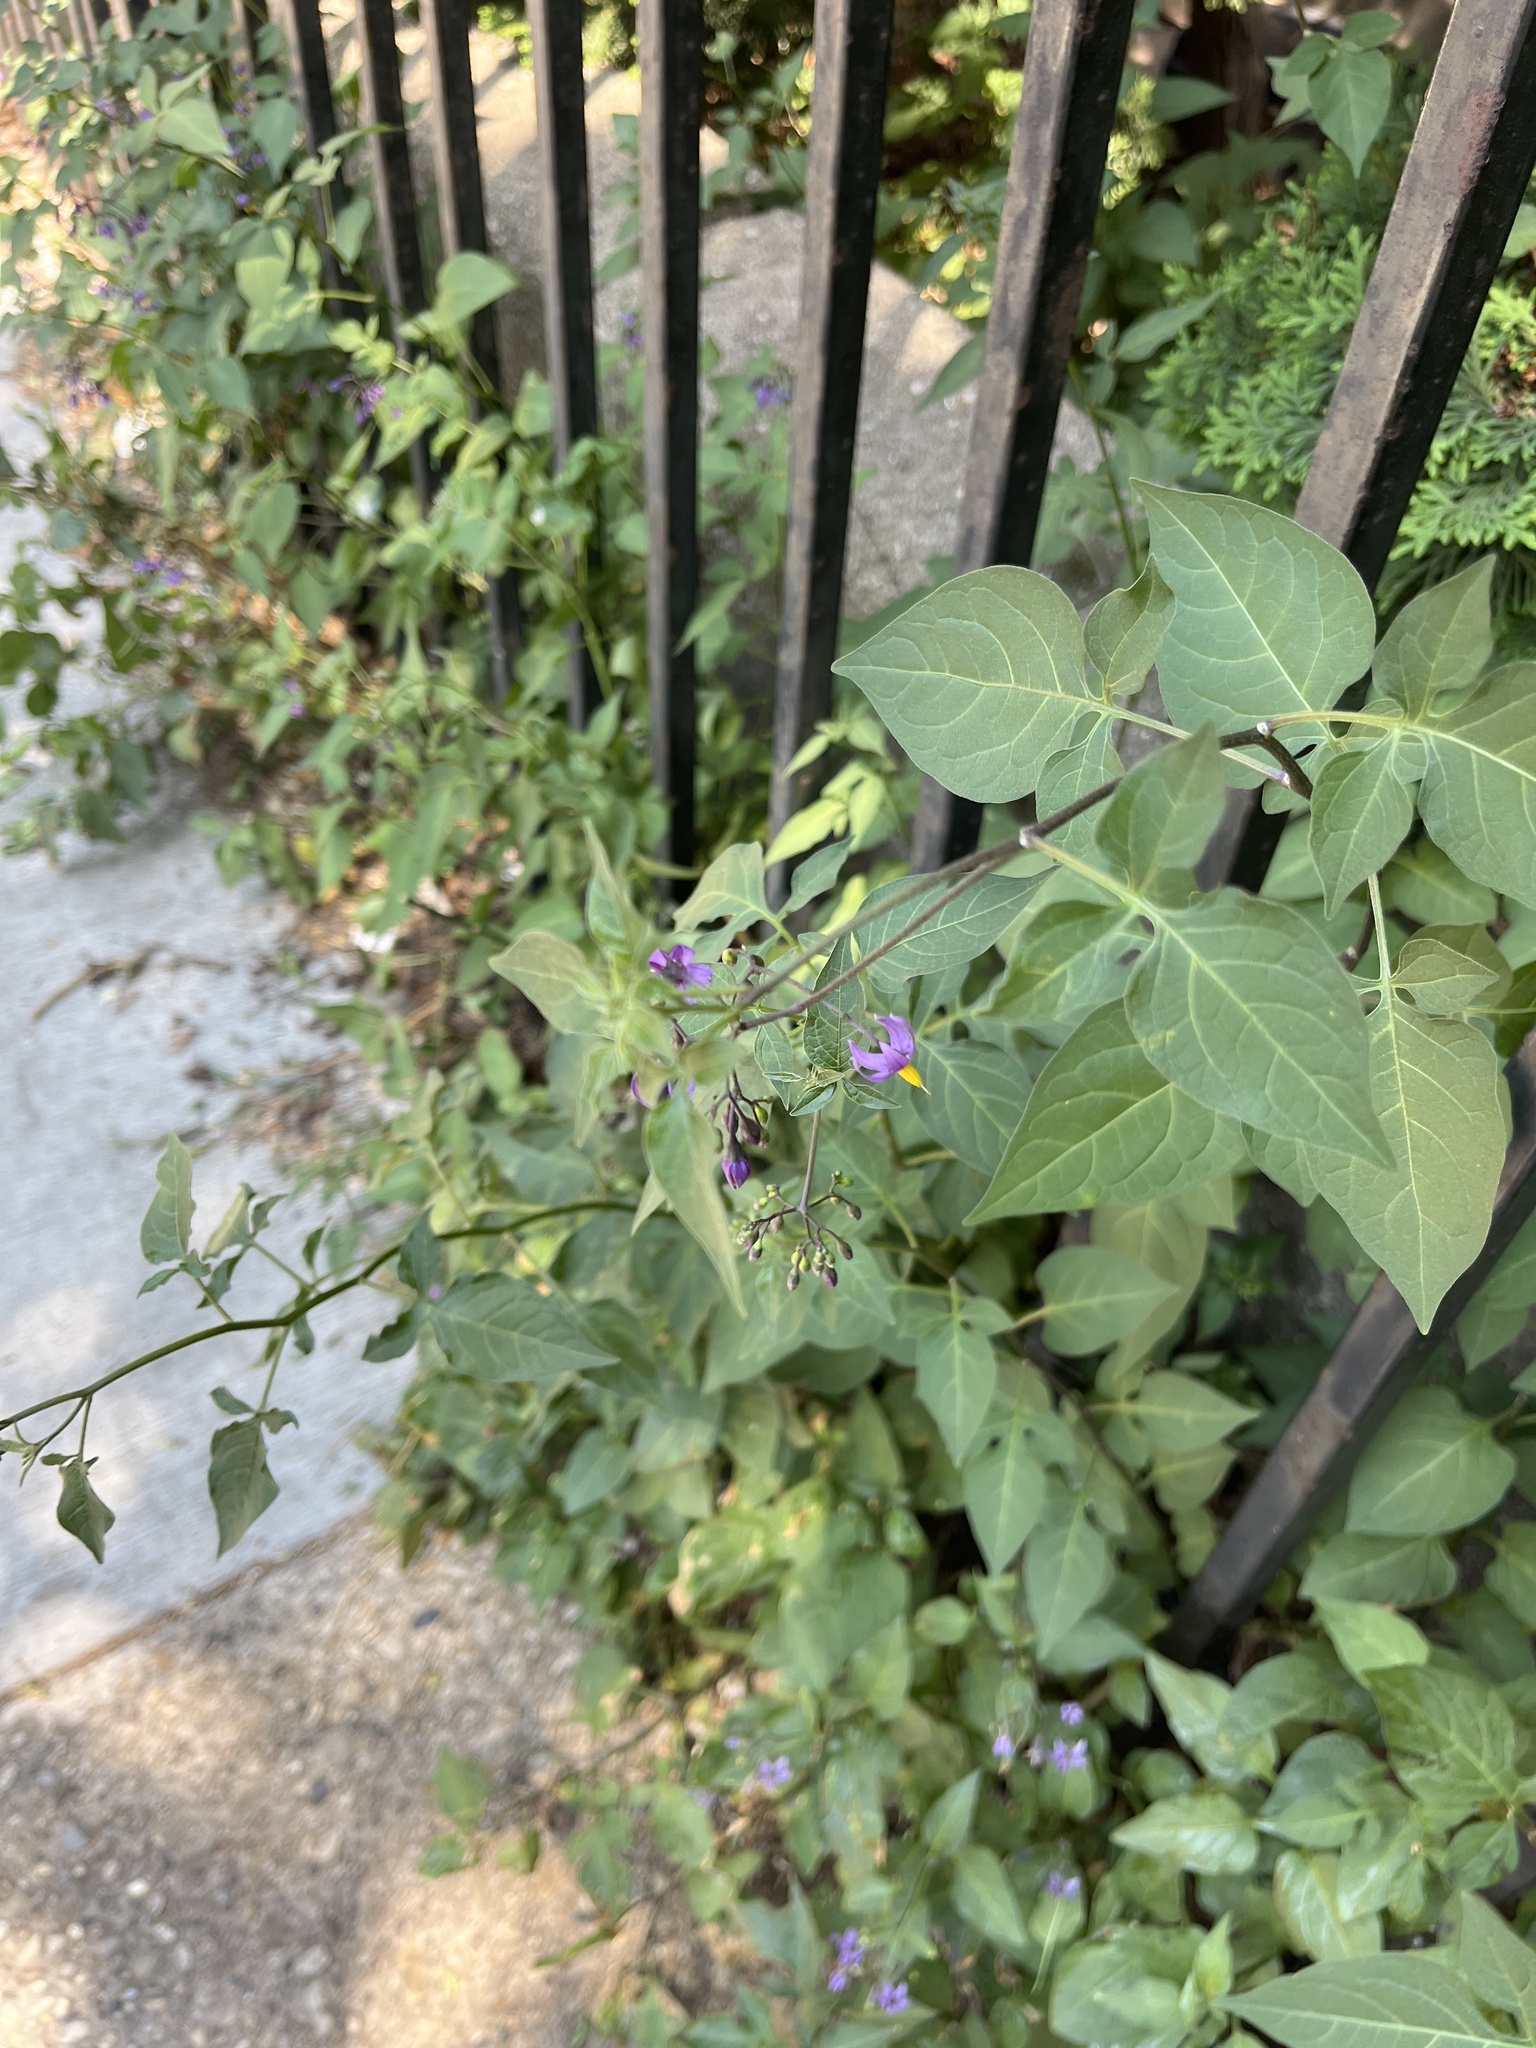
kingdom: Plantae
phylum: Tracheophyta
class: Magnoliopsida
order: Solanales
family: Solanaceae
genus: Solanum
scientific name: Solanum dulcamara
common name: Climbing nightshade
